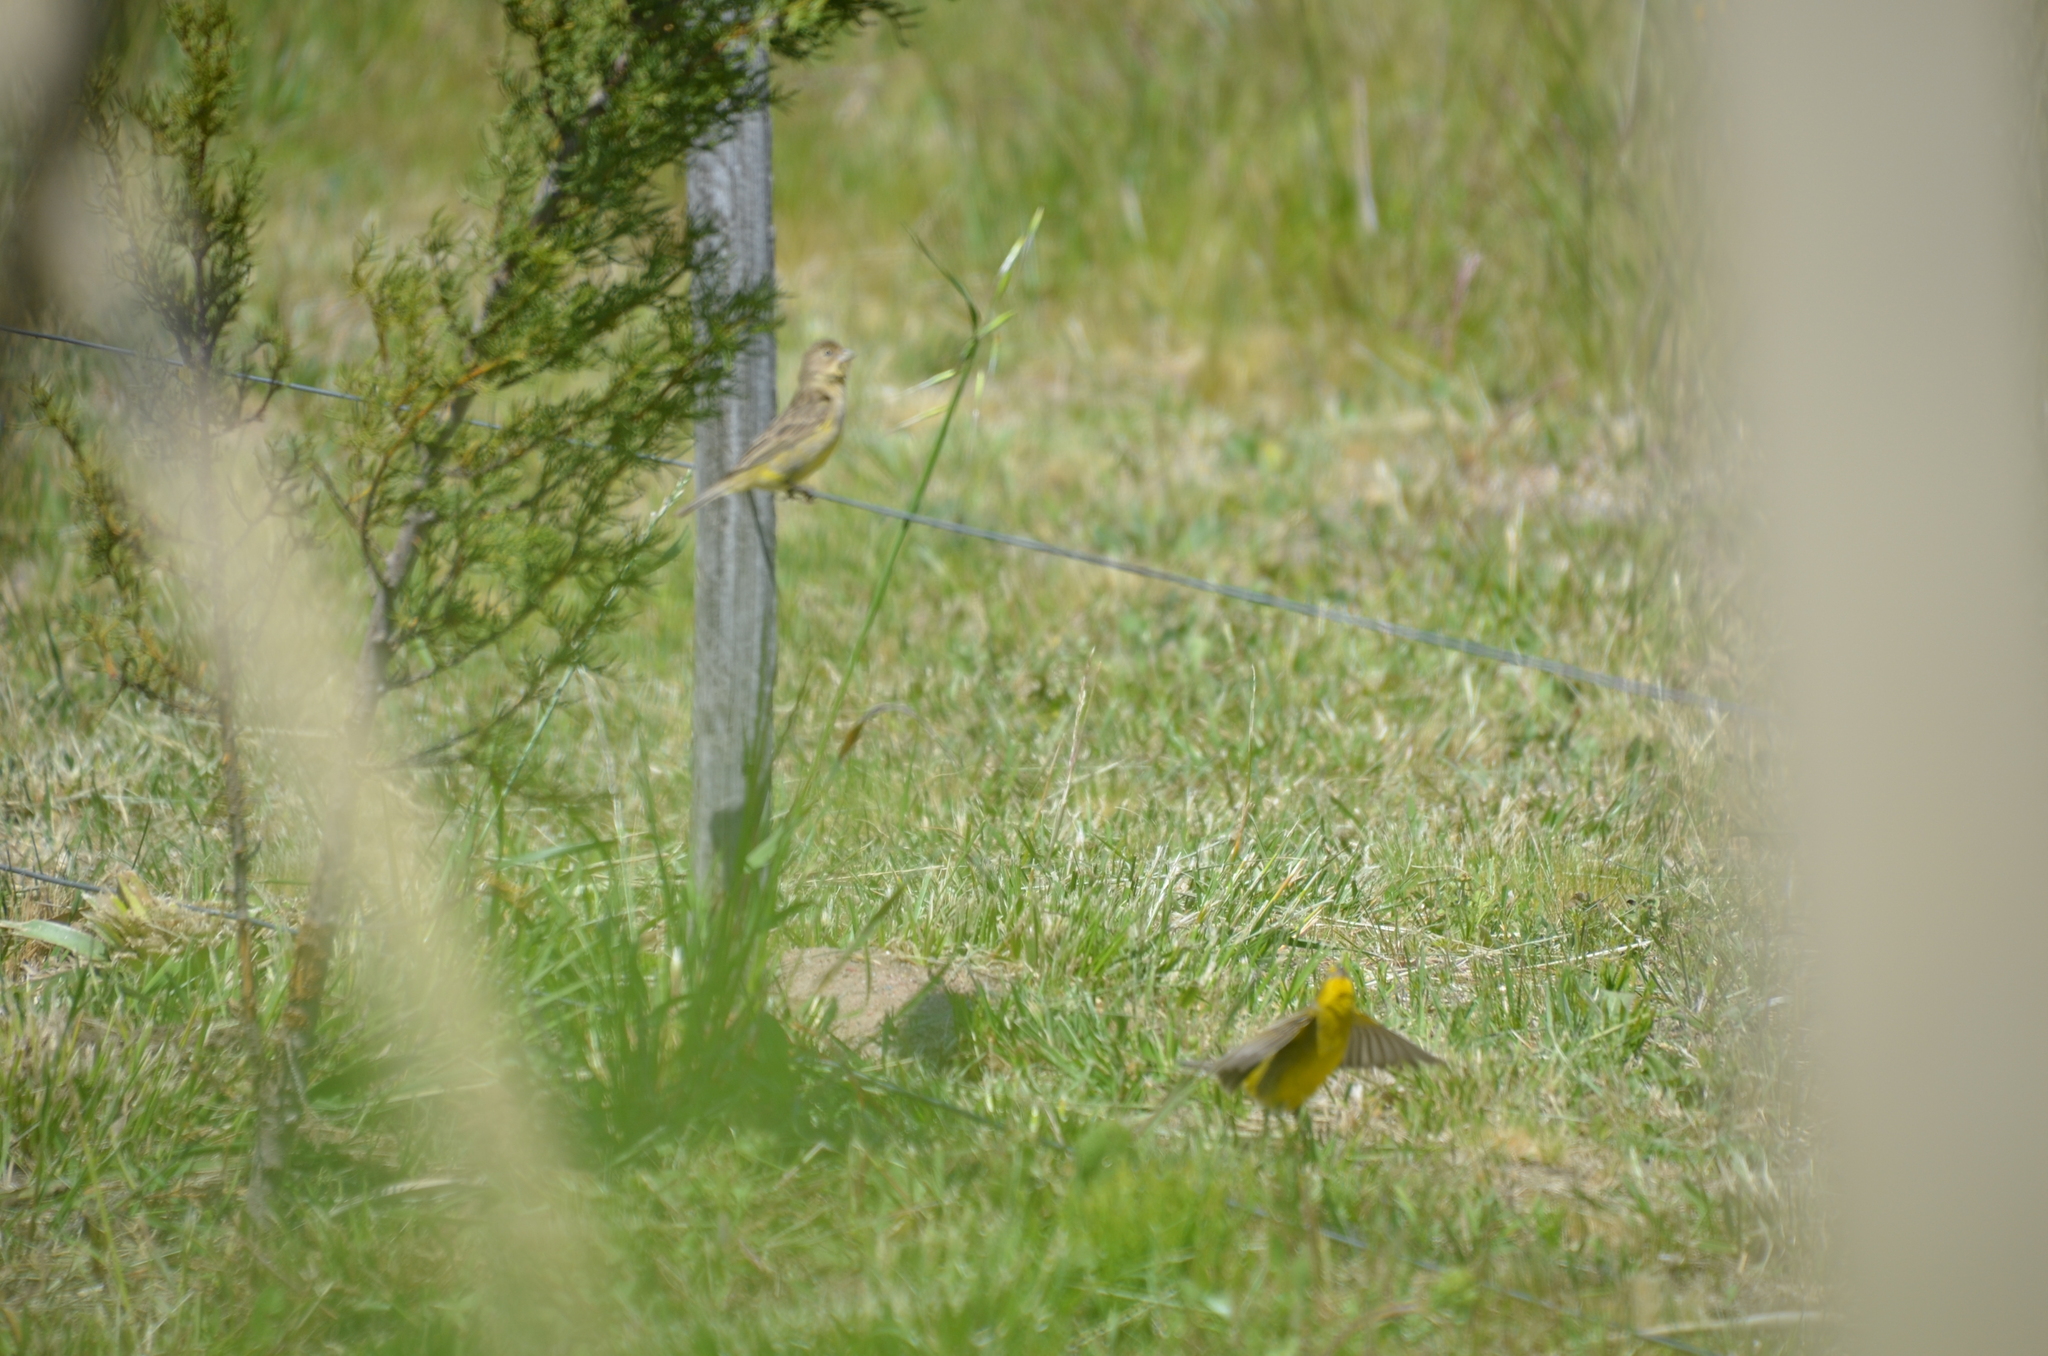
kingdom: Animalia
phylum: Chordata
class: Aves
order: Passeriformes
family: Thraupidae
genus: Sicalis
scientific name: Sicalis luteola
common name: Grassland yellow-finch
